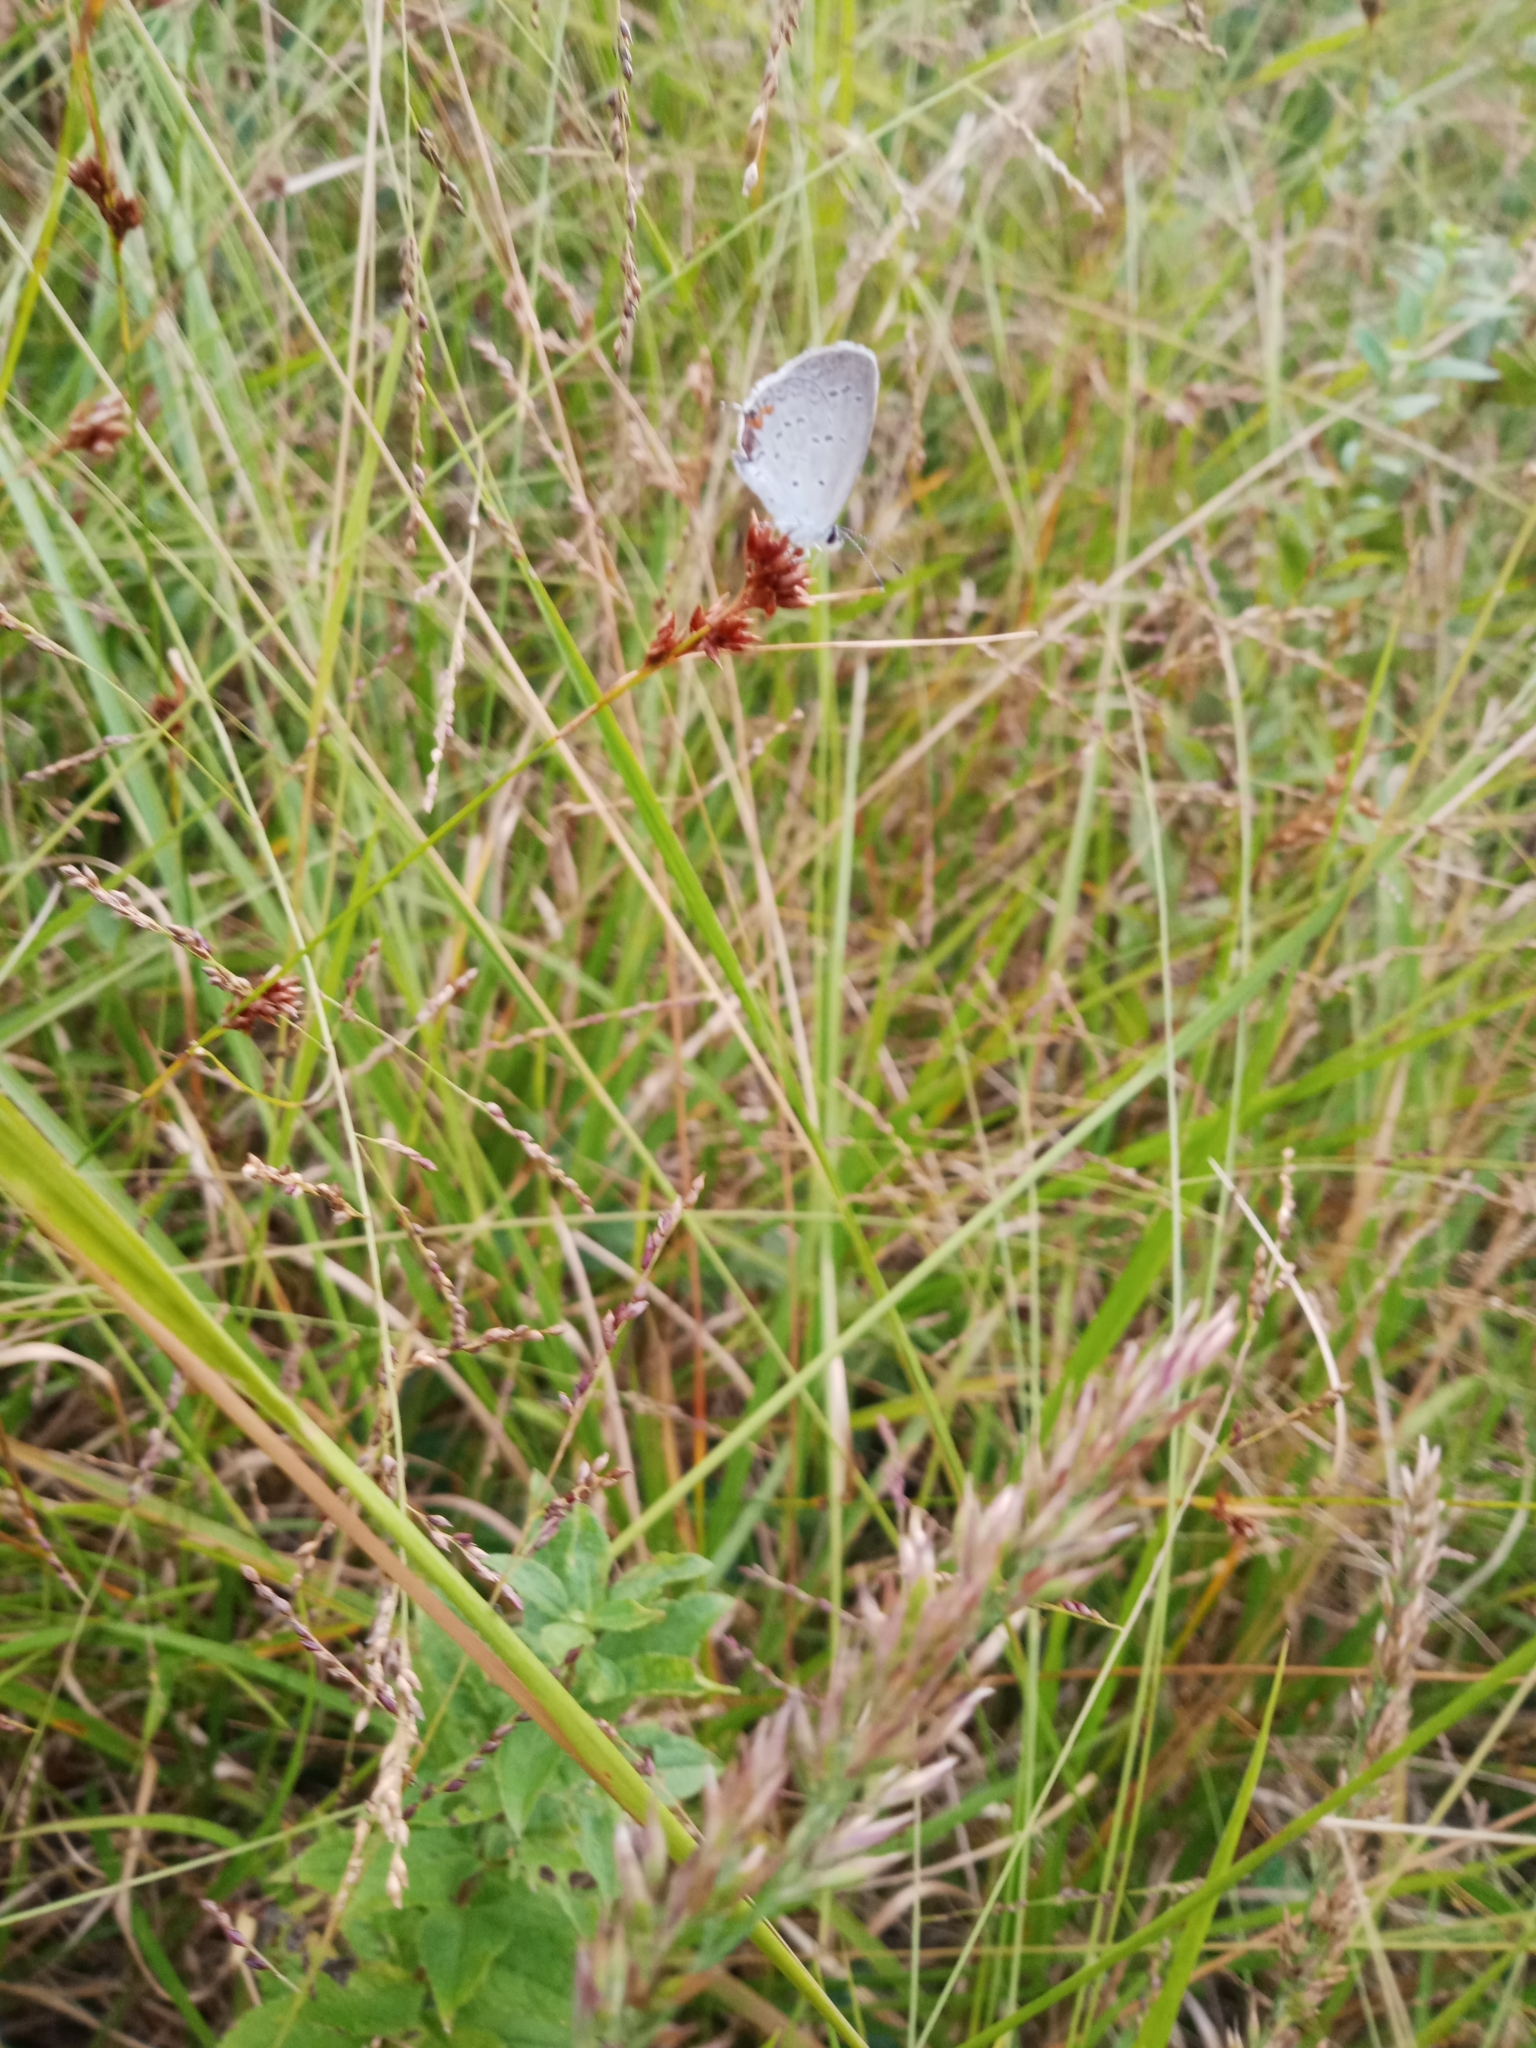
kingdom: Animalia
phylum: Arthropoda
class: Insecta
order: Lepidoptera
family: Lycaenidae
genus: Elkalyce
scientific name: Elkalyce comyntas
